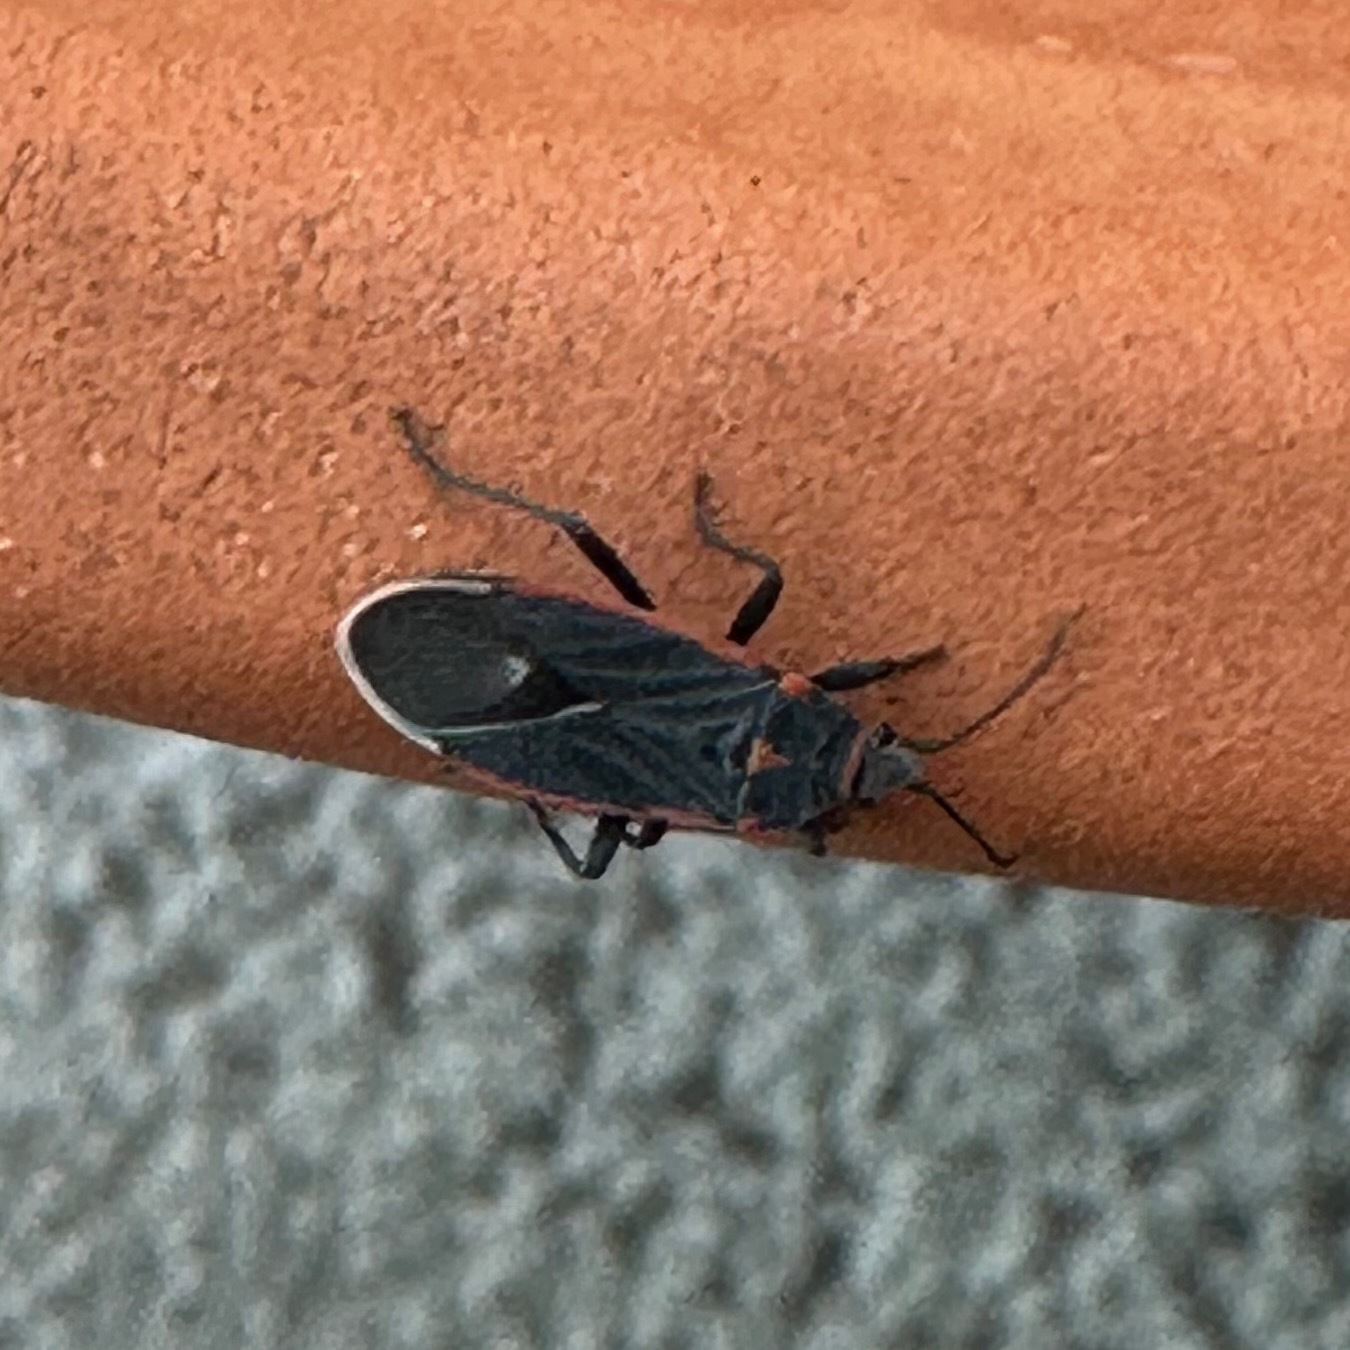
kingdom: Animalia
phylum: Arthropoda
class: Insecta
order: Hemiptera
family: Lygaeidae
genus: Melacoryphus
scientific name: Melacoryphus lateralis
